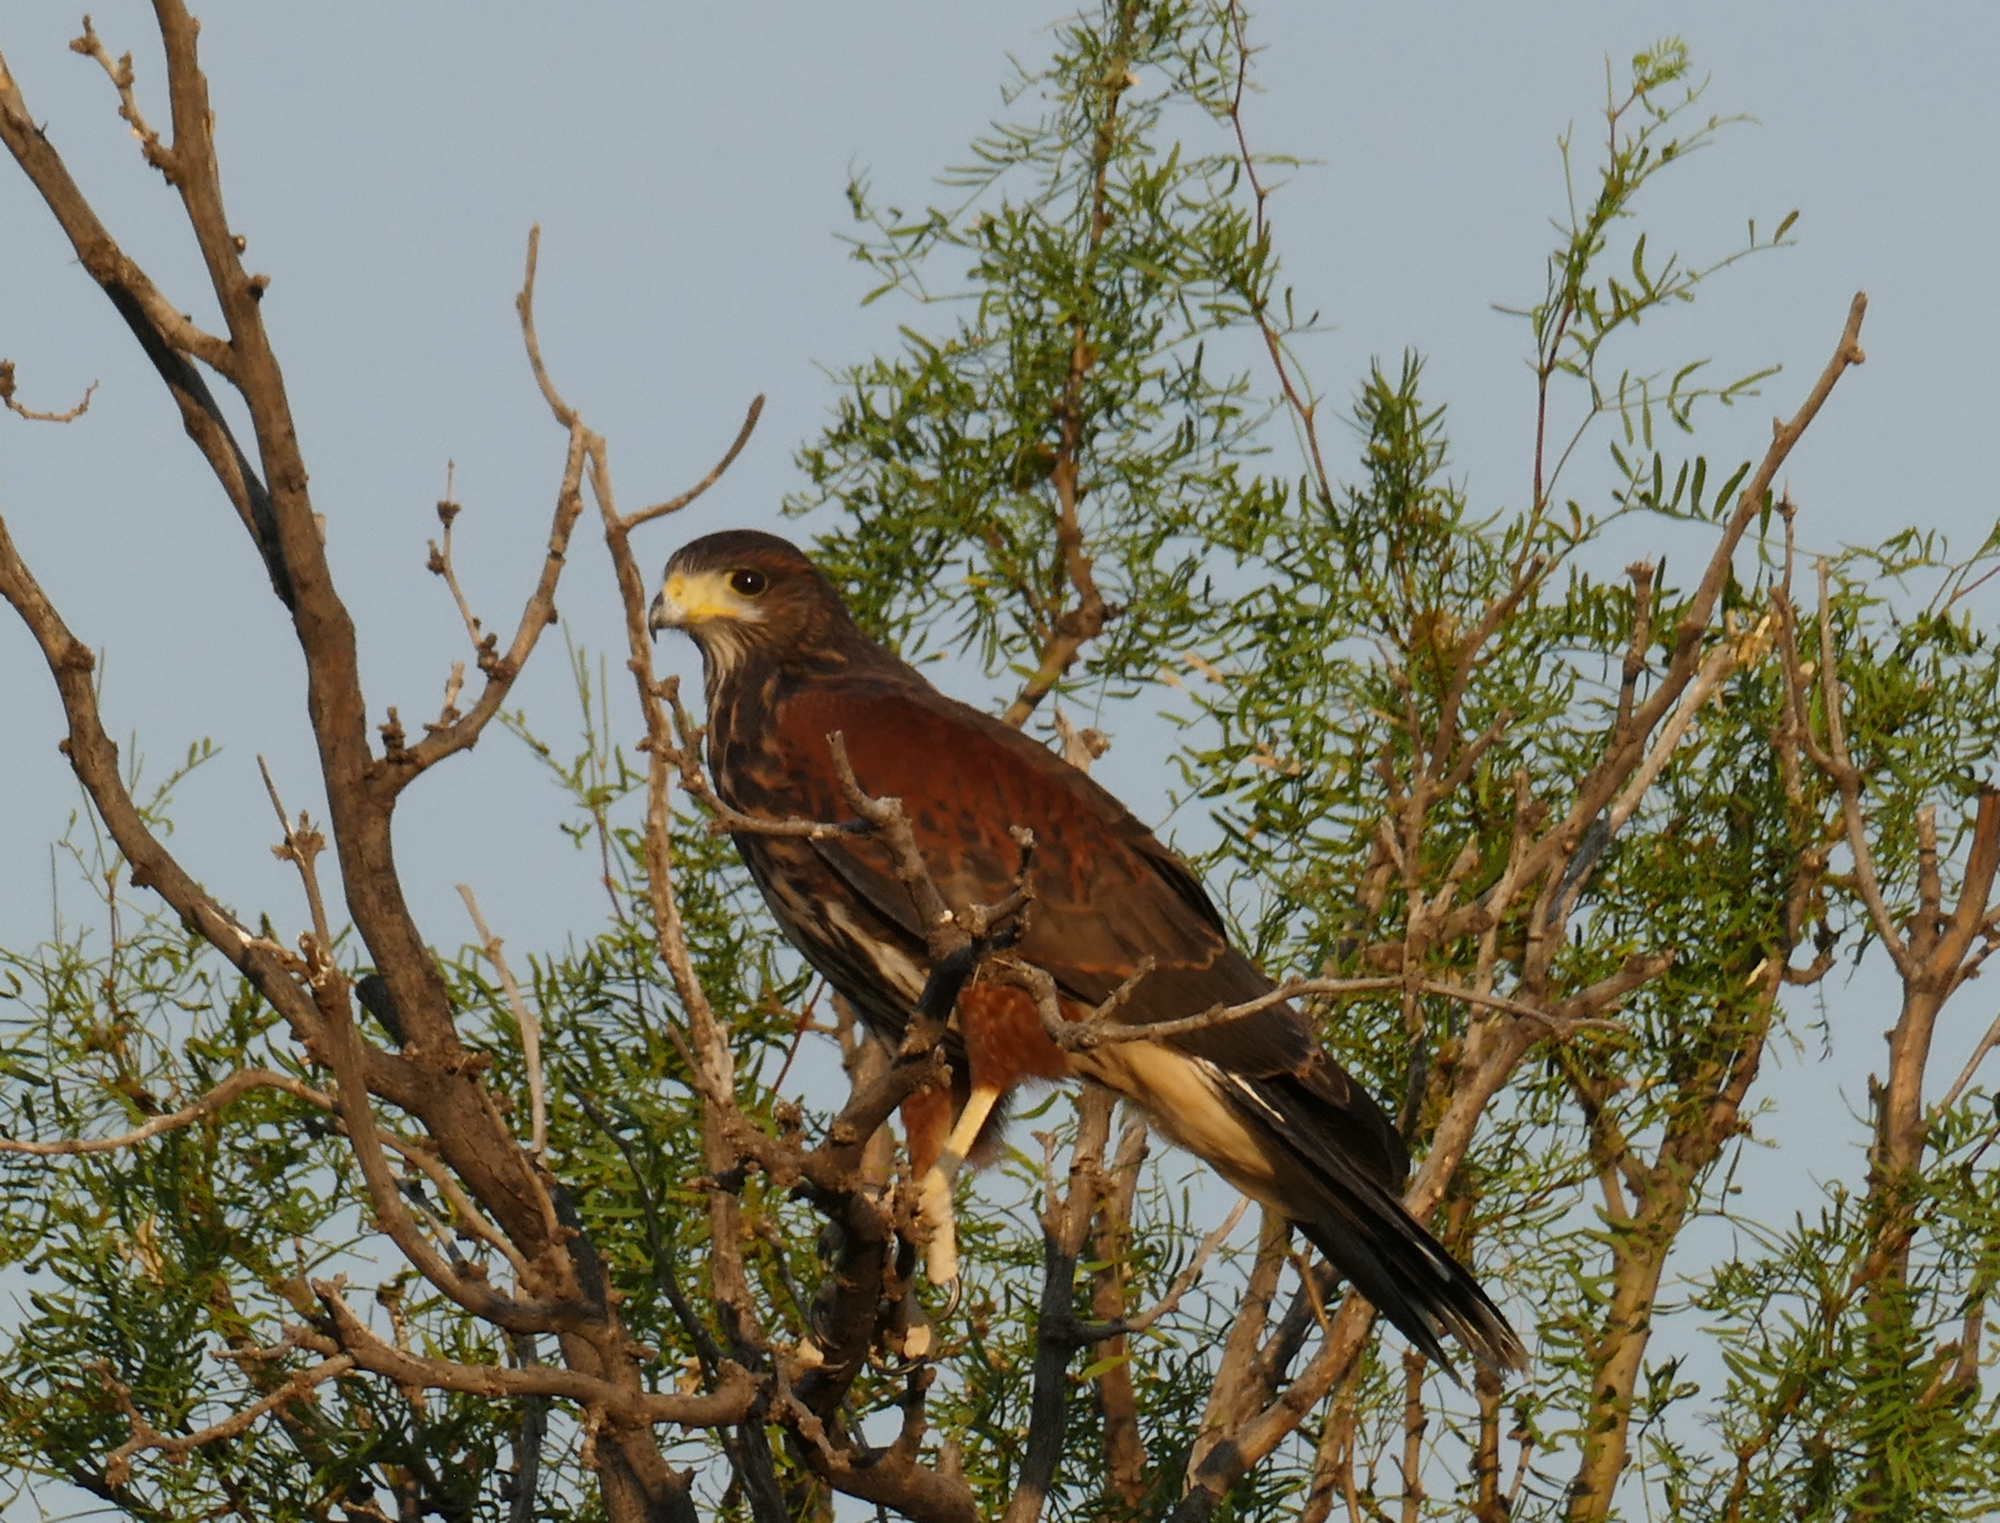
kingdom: Animalia
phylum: Chordata
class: Aves
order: Accipitriformes
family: Accipitridae
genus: Parabuteo
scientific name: Parabuteo unicinctus
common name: Harris's hawk
